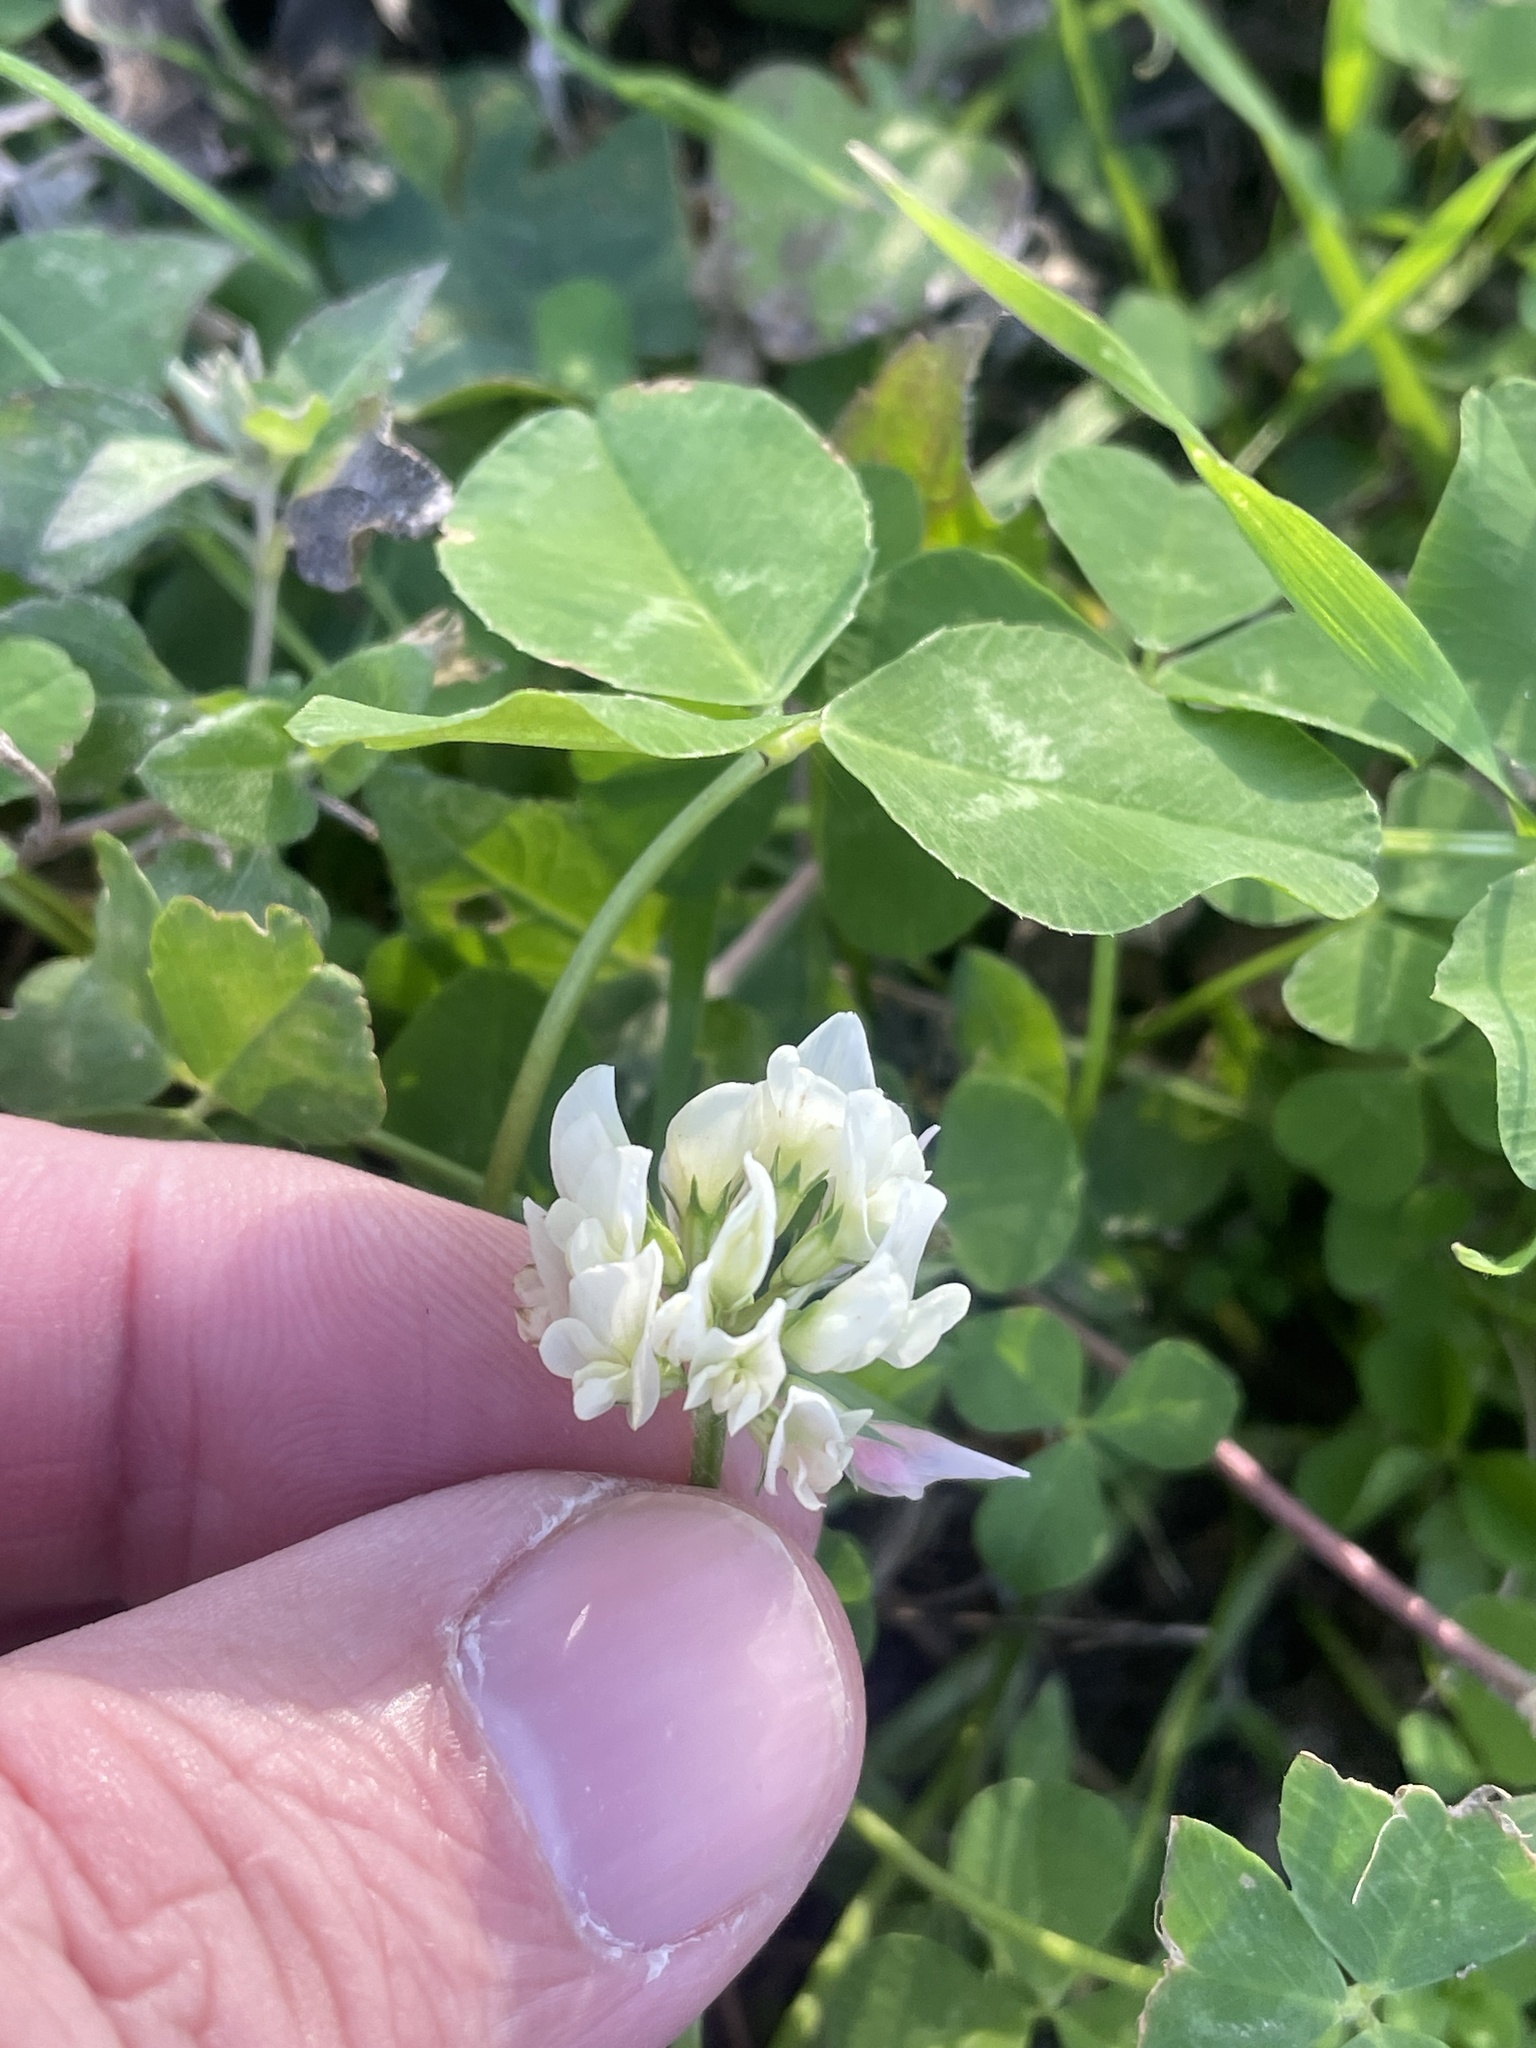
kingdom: Plantae
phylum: Tracheophyta
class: Magnoliopsida
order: Fabales
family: Fabaceae
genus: Trifolium
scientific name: Trifolium repens
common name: White clover
